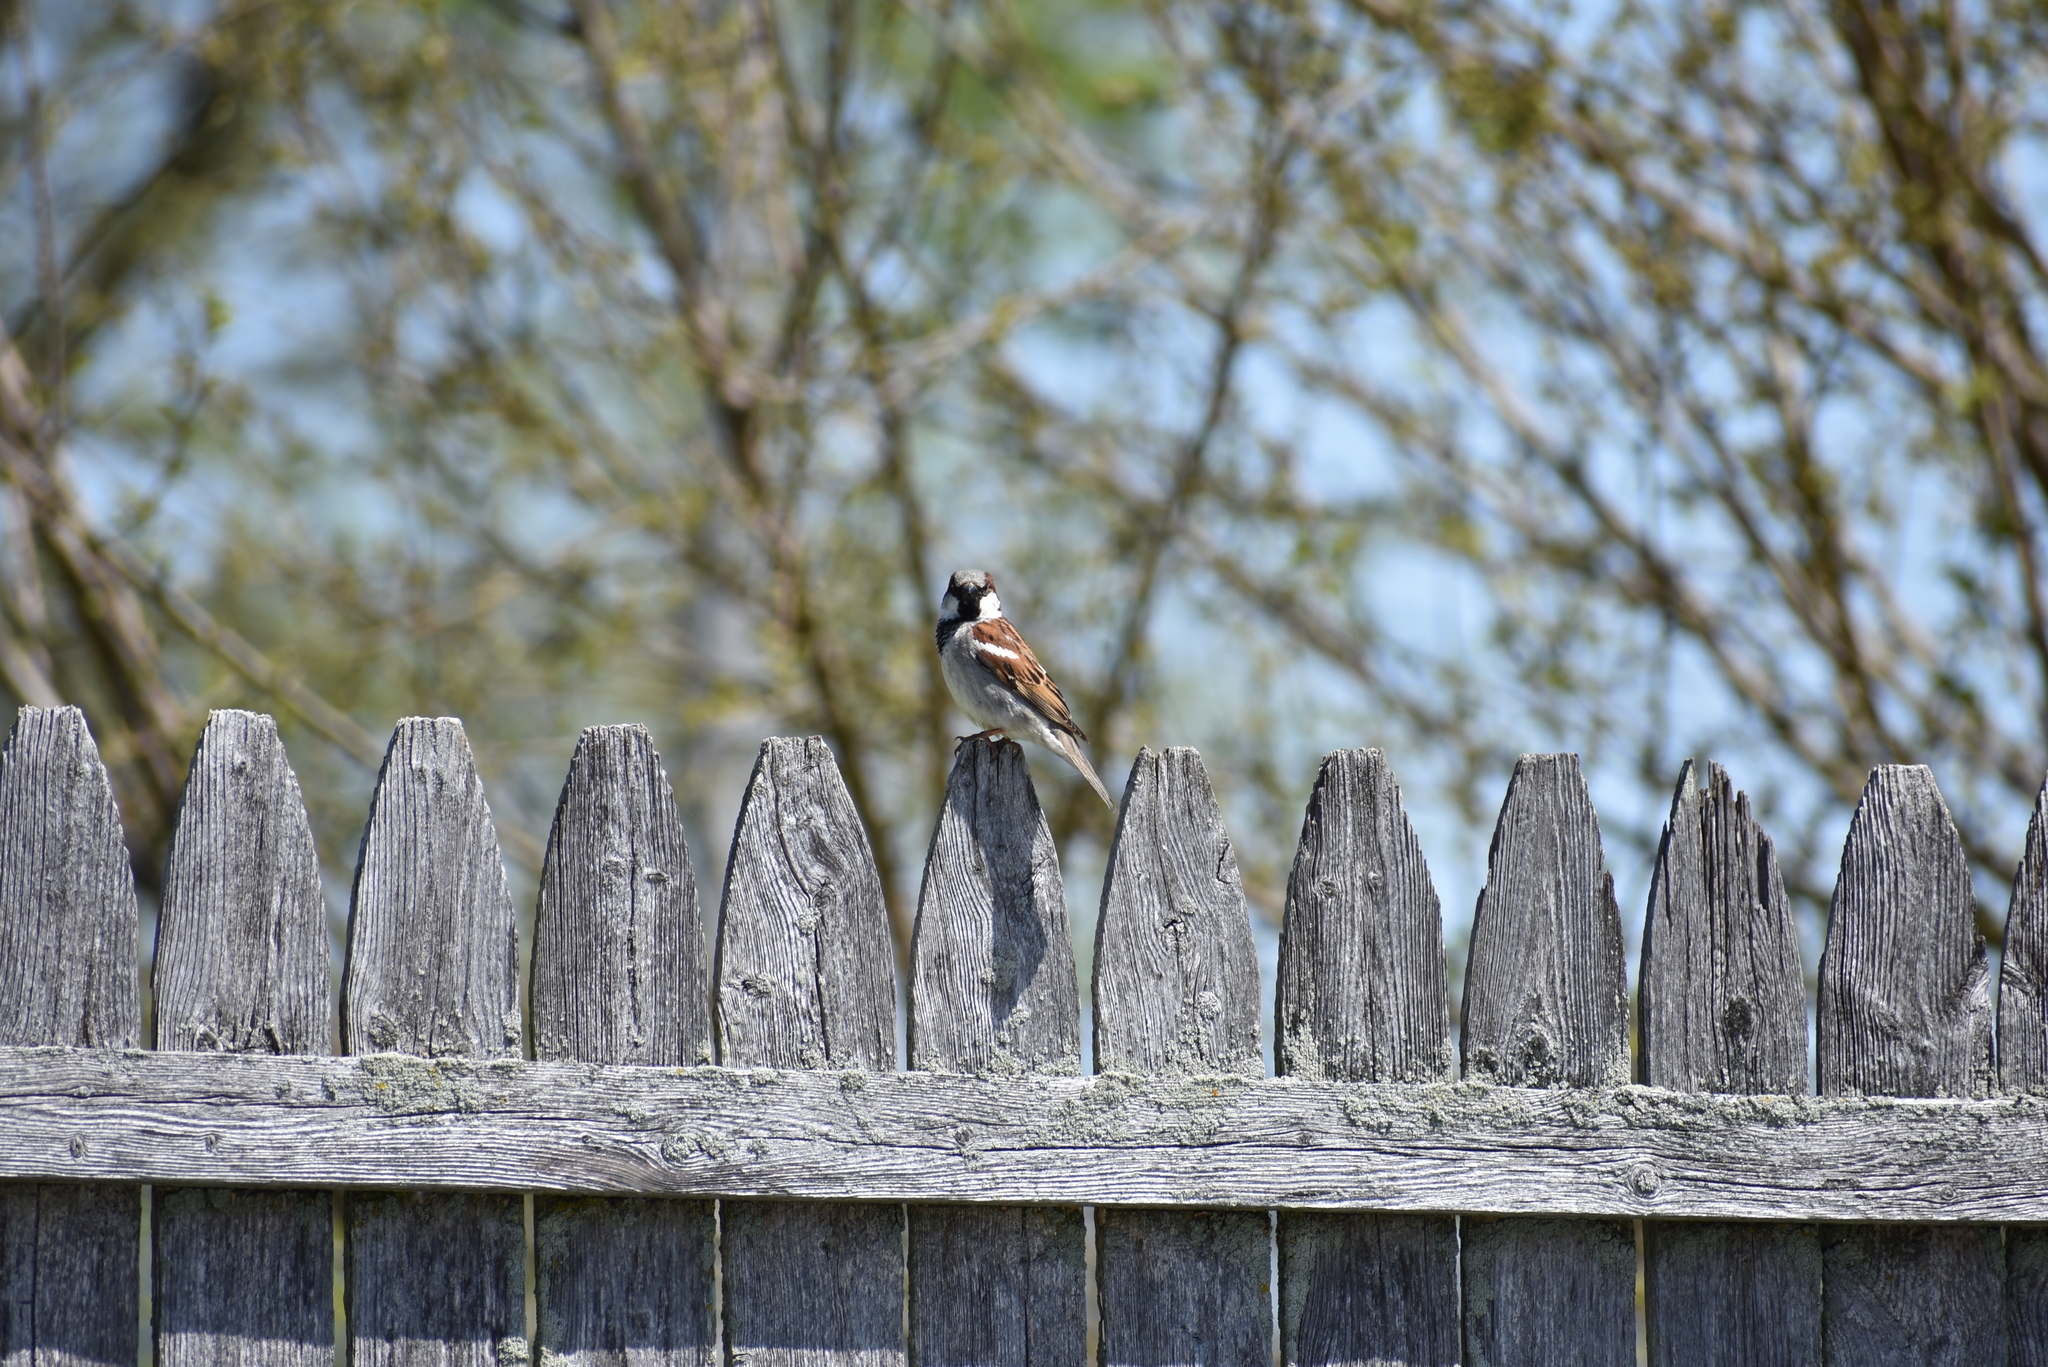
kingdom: Animalia
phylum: Chordata
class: Aves
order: Passeriformes
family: Passeridae
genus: Passer
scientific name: Passer domesticus
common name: House sparrow
